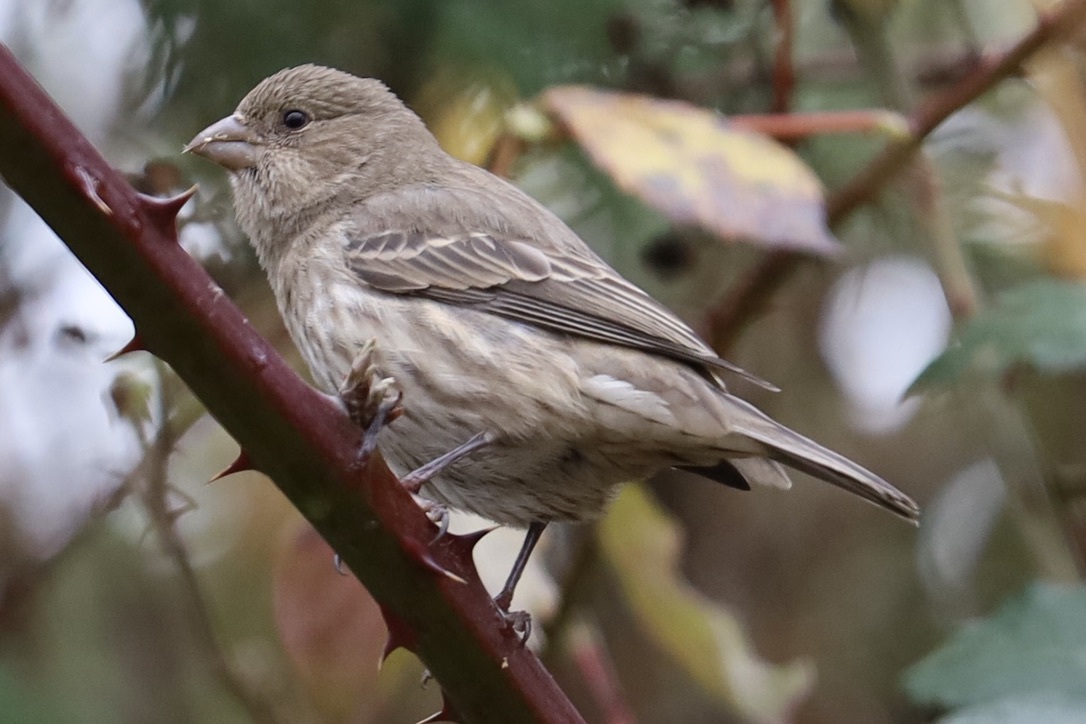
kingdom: Animalia
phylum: Chordata
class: Aves
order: Passeriformes
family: Fringillidae
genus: Haemorhous
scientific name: Haemorhous mexicanus
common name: House finch
